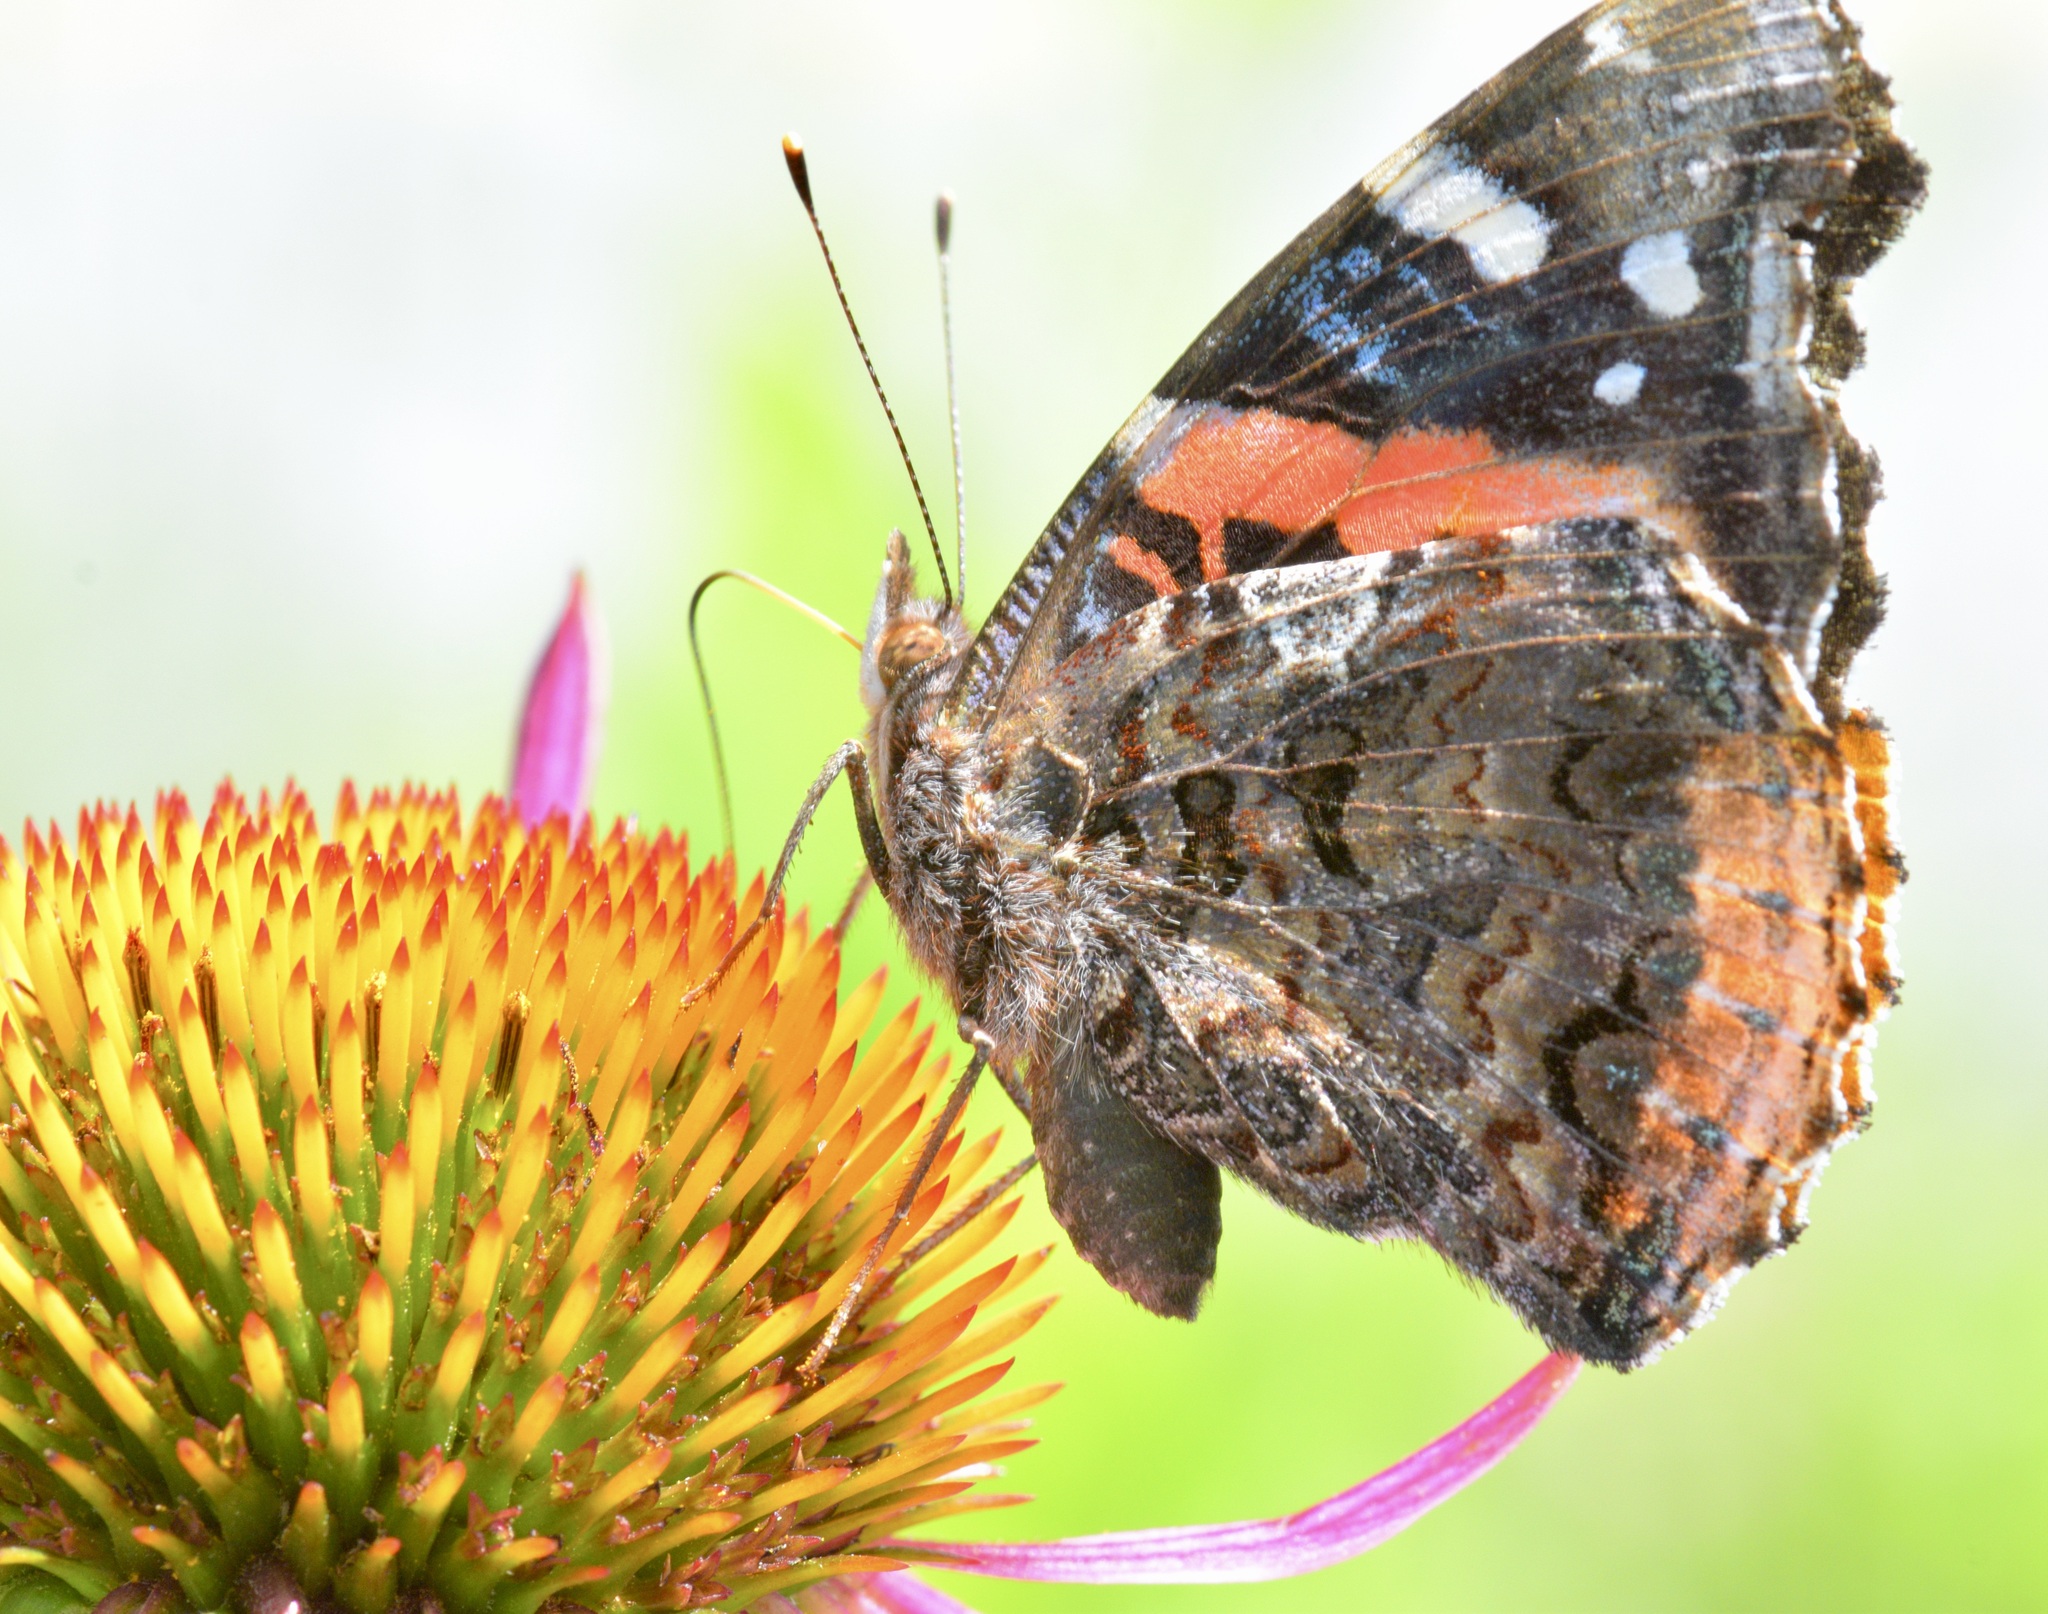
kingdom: Animalia
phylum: Arthropoda
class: Insecta
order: Lepidoptera
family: Nymphalidae
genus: Vanessa
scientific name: Vanessa atalanta
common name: Red admiral
